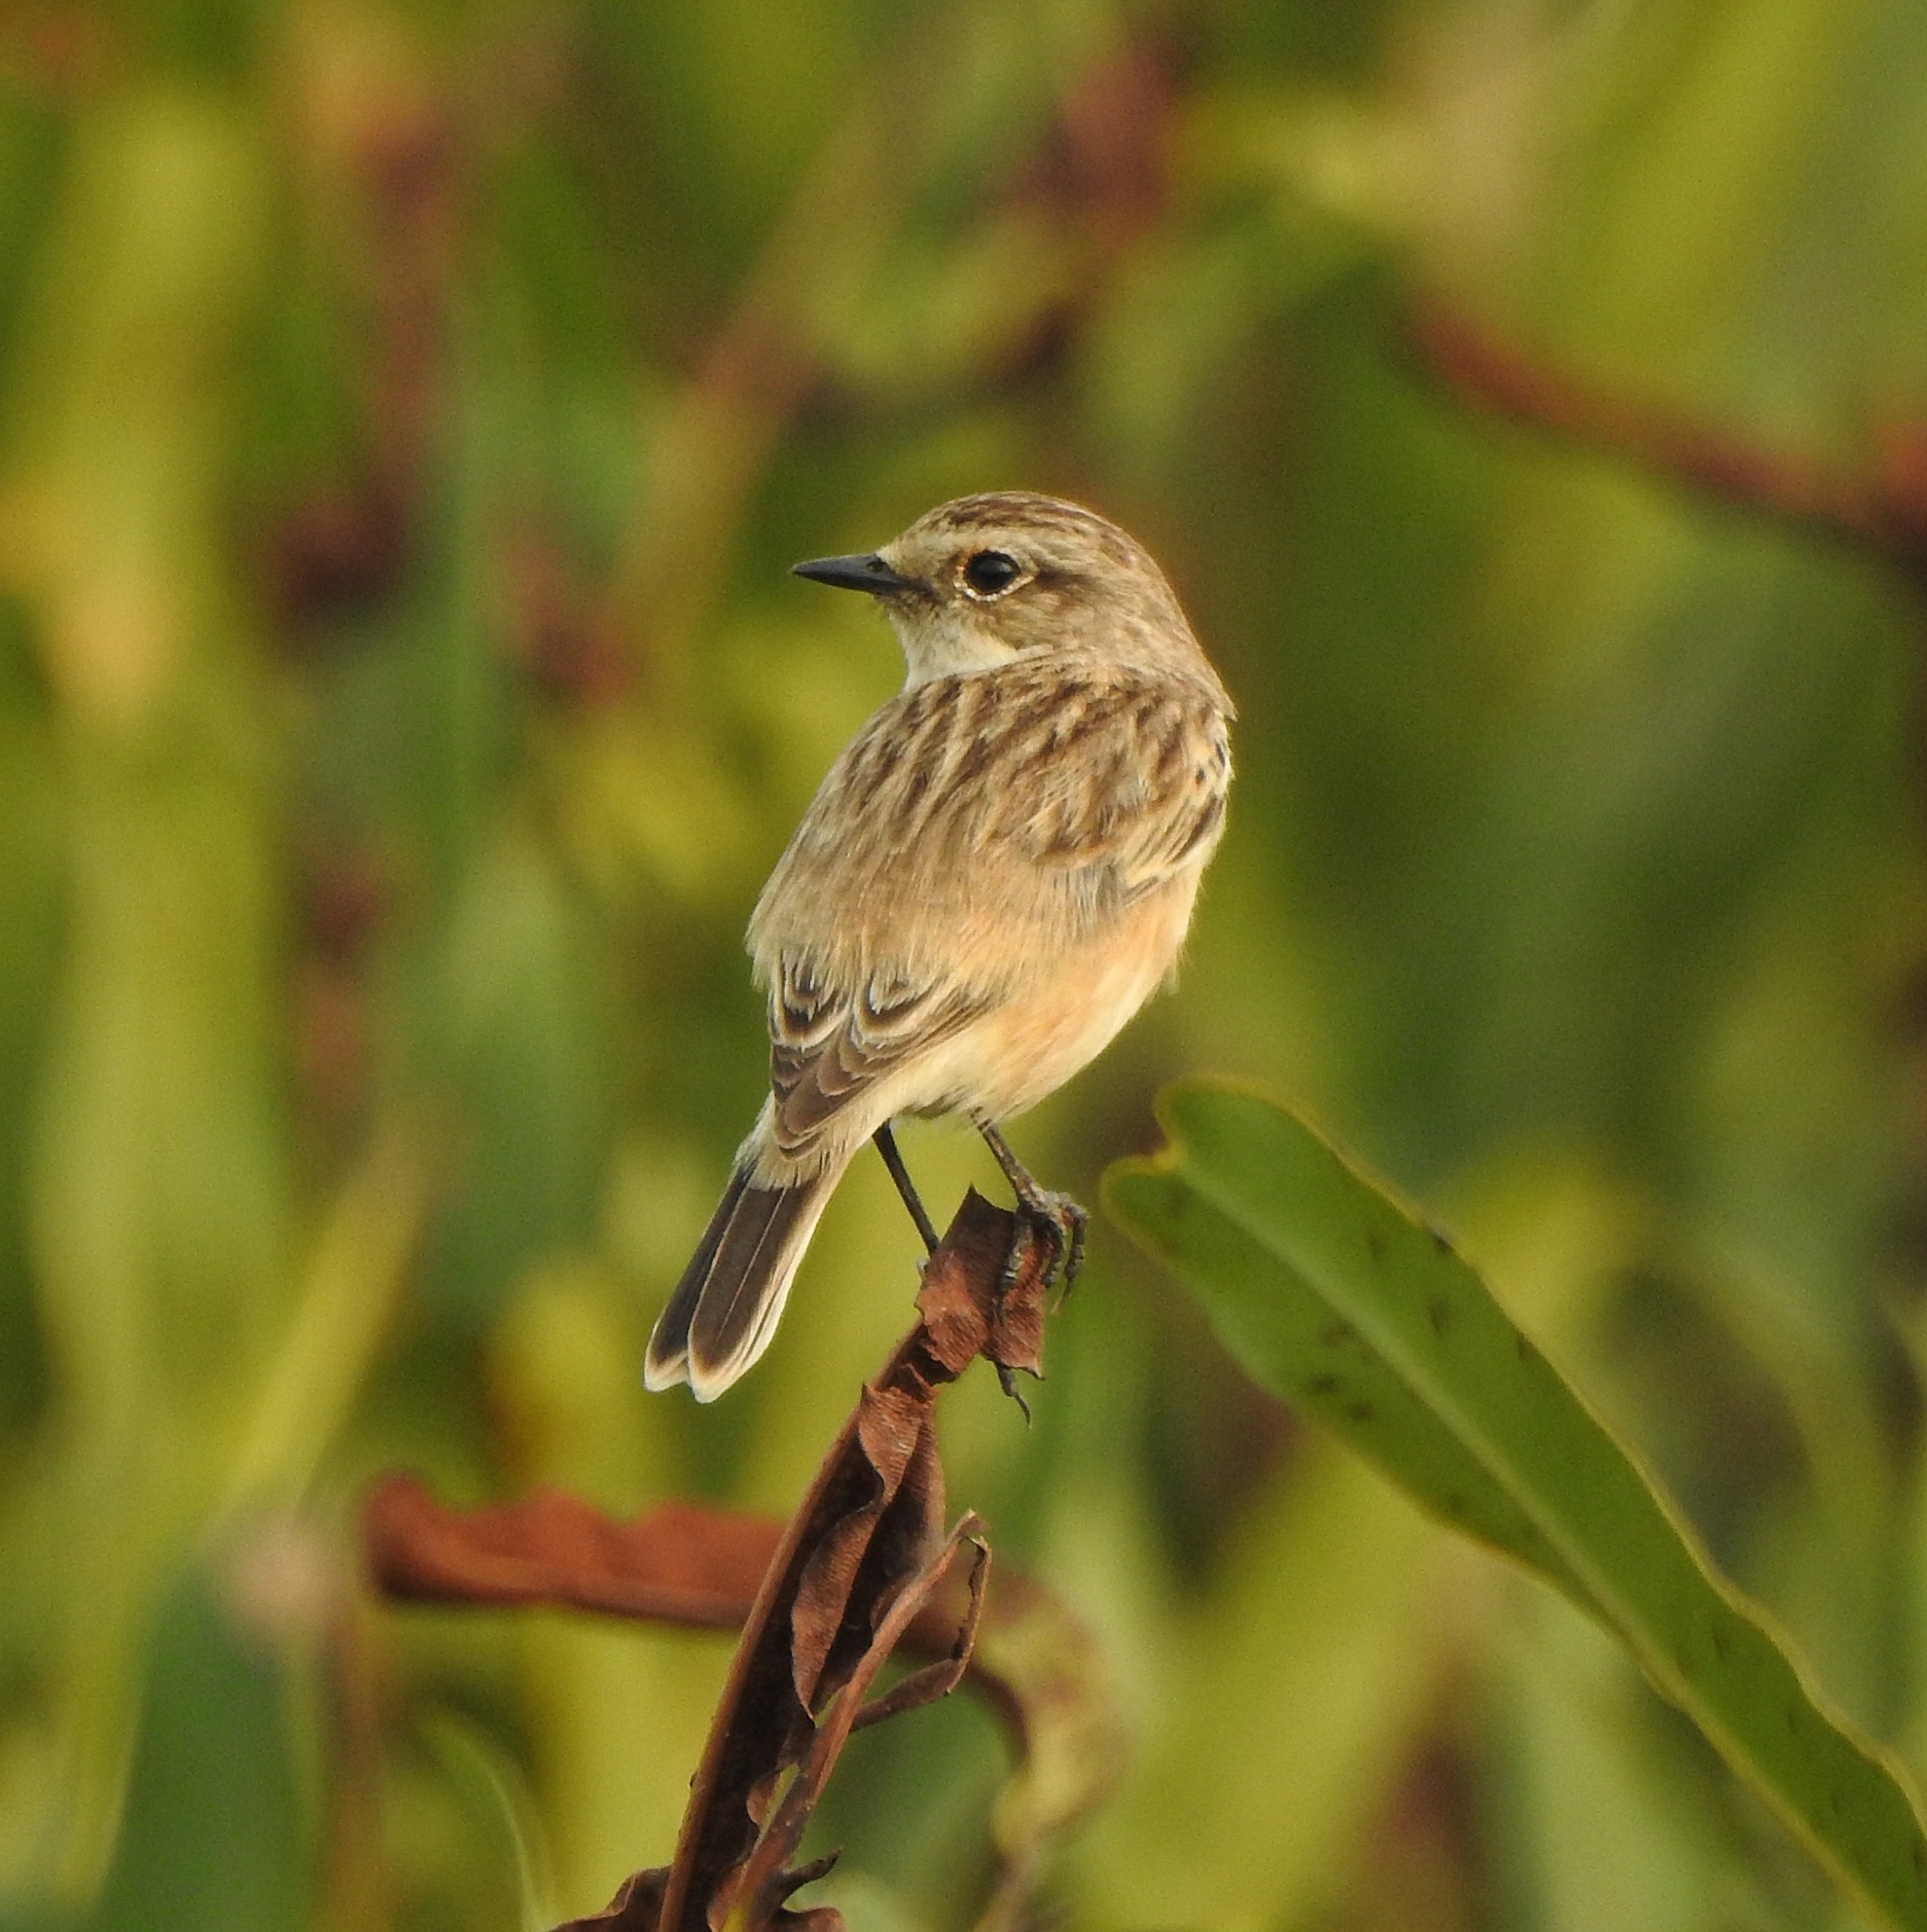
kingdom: Animalia
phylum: Chordata
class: Aves
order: Passeriformes
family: Muscicapidae
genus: Saxicola
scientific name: Saxicola maurus
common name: Siberian stonechat
